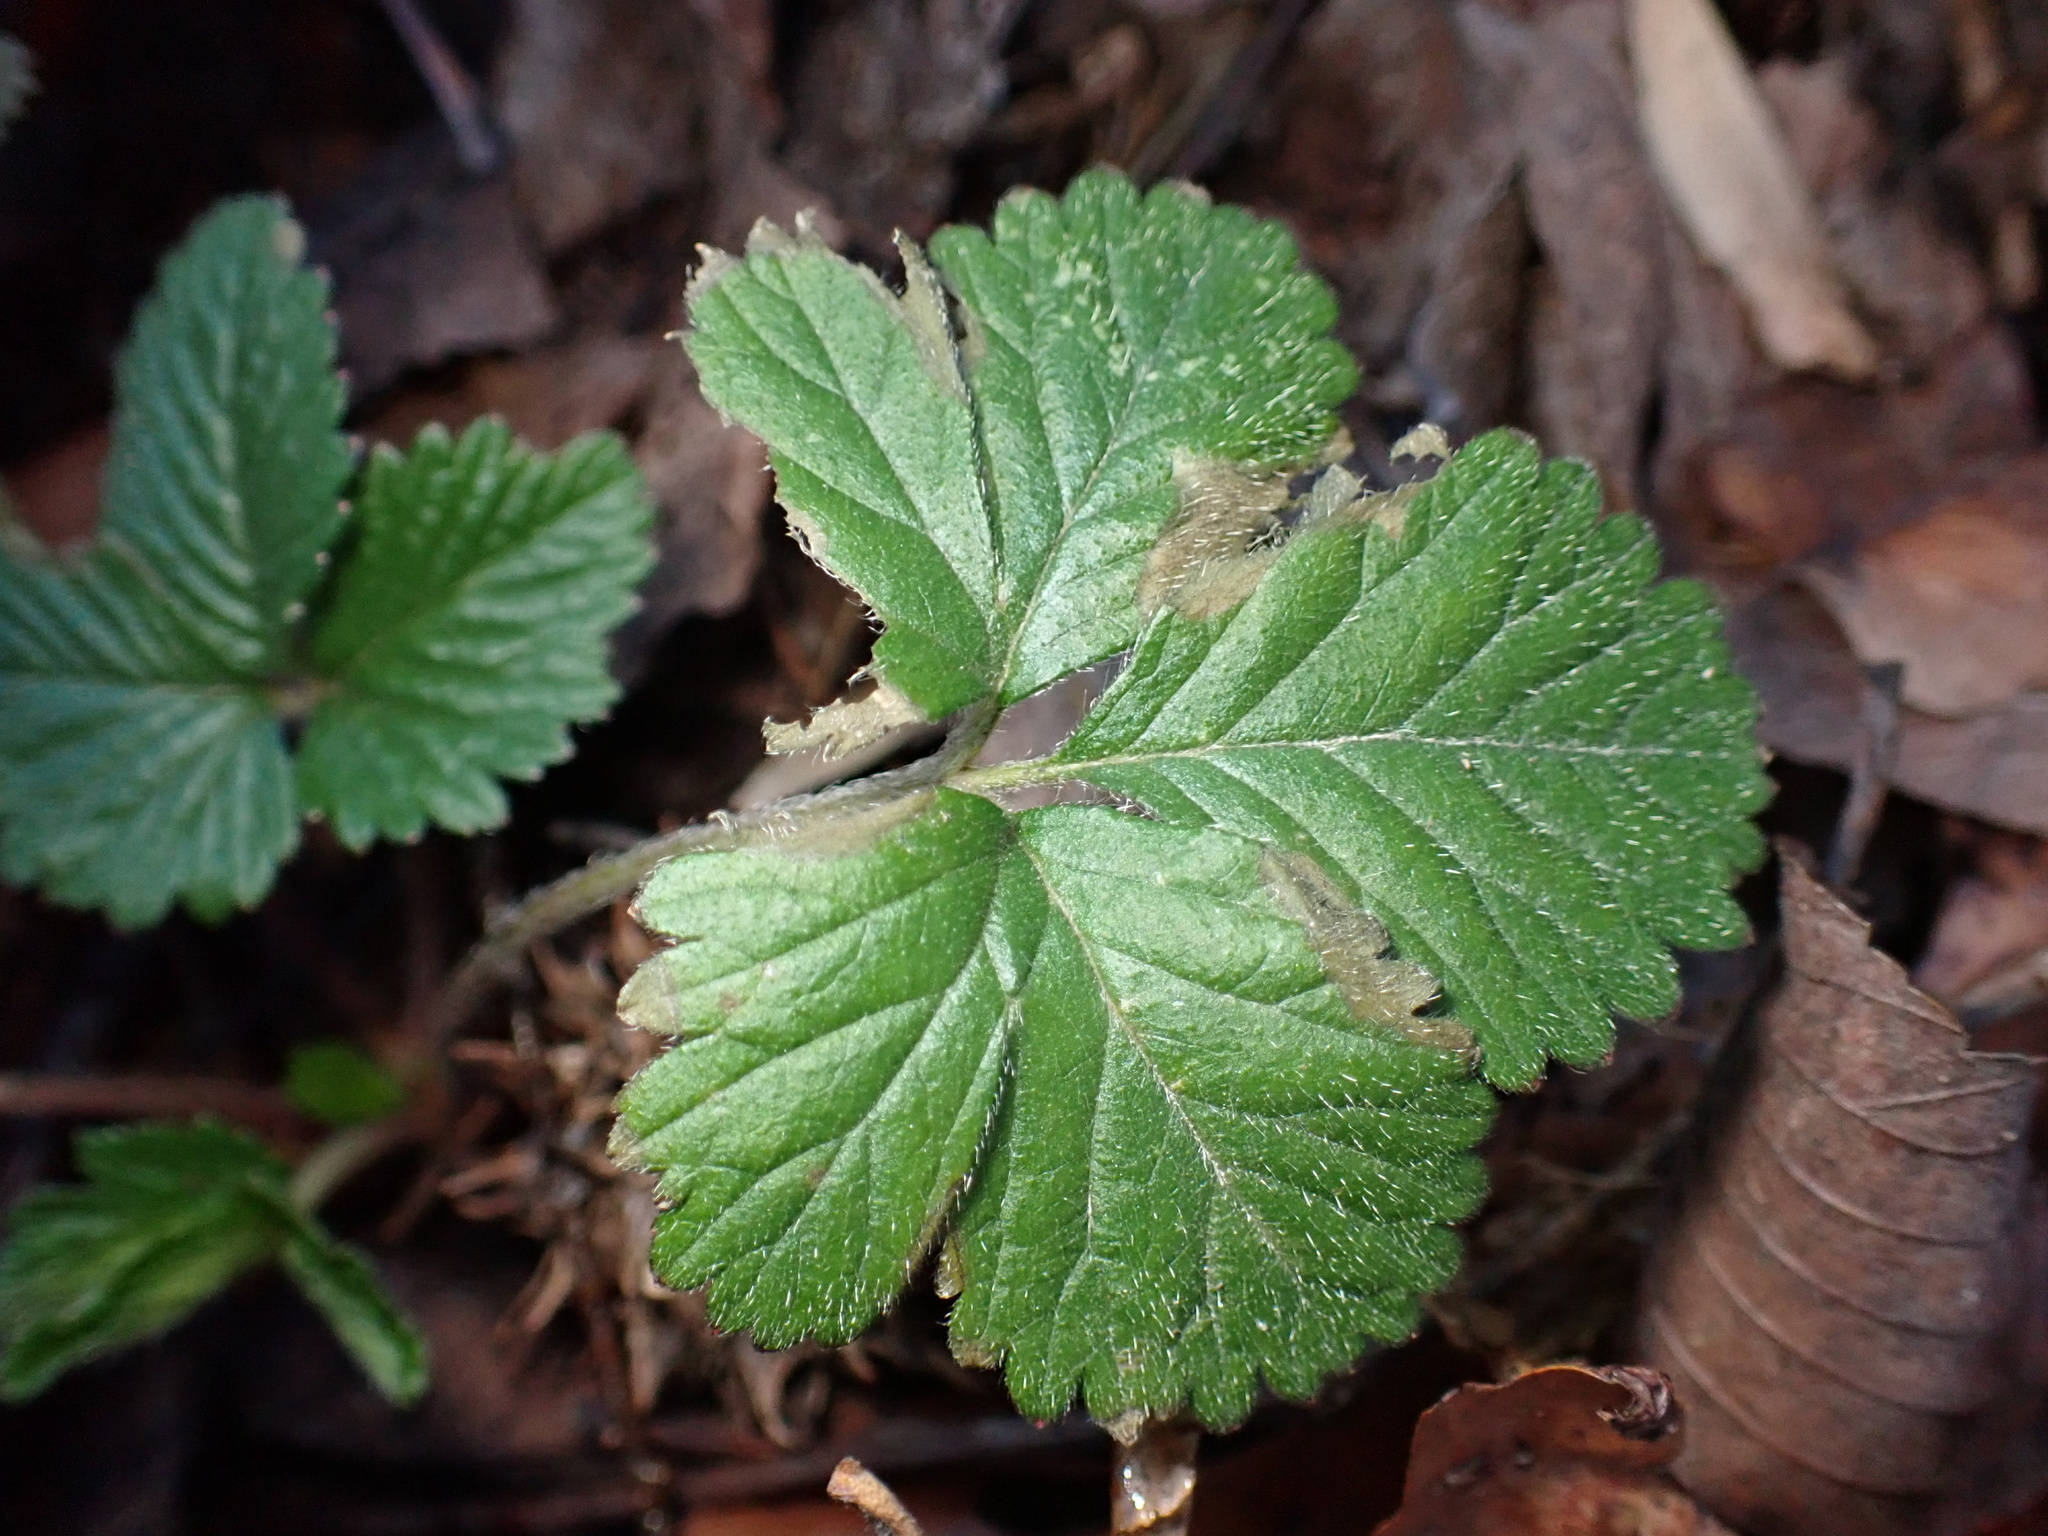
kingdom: Plantae
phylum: Tracheophyta
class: Magnoliopsida
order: Rosales
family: Rosaceae
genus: Potentilla
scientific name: Potentilla indica
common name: Yellow-flowered strawberry
